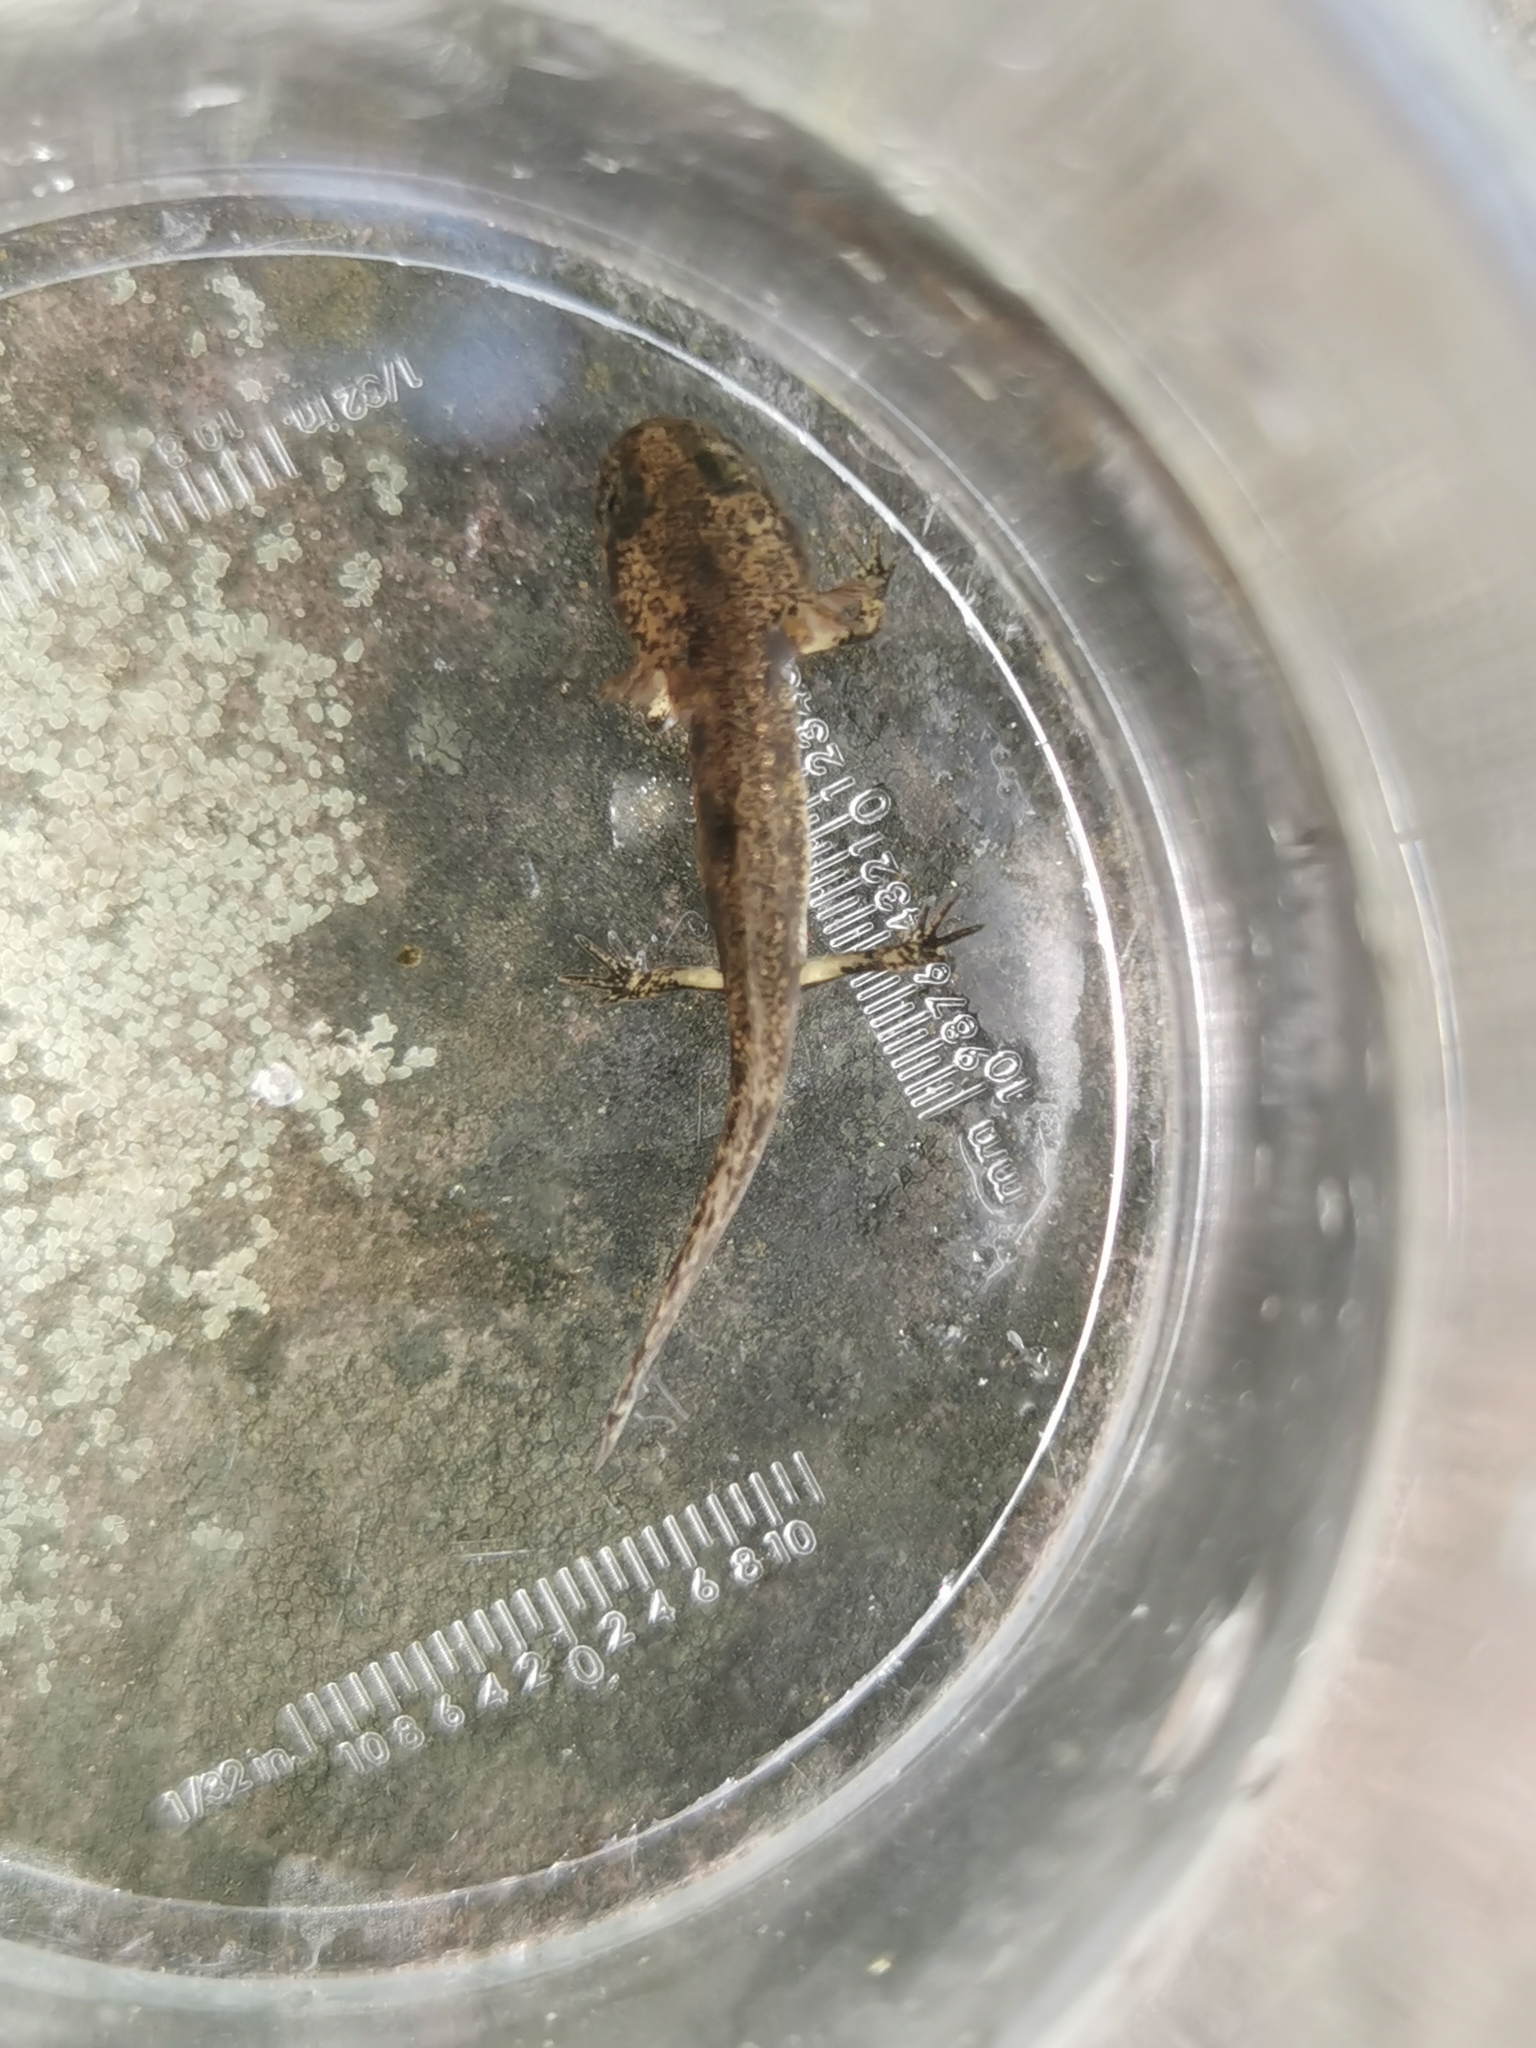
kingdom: Animalia
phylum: Chordata
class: Amphibia
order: Caudata
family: Salamandridae
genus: Salamandra
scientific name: Salamandra salamandra
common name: Fire salamander
